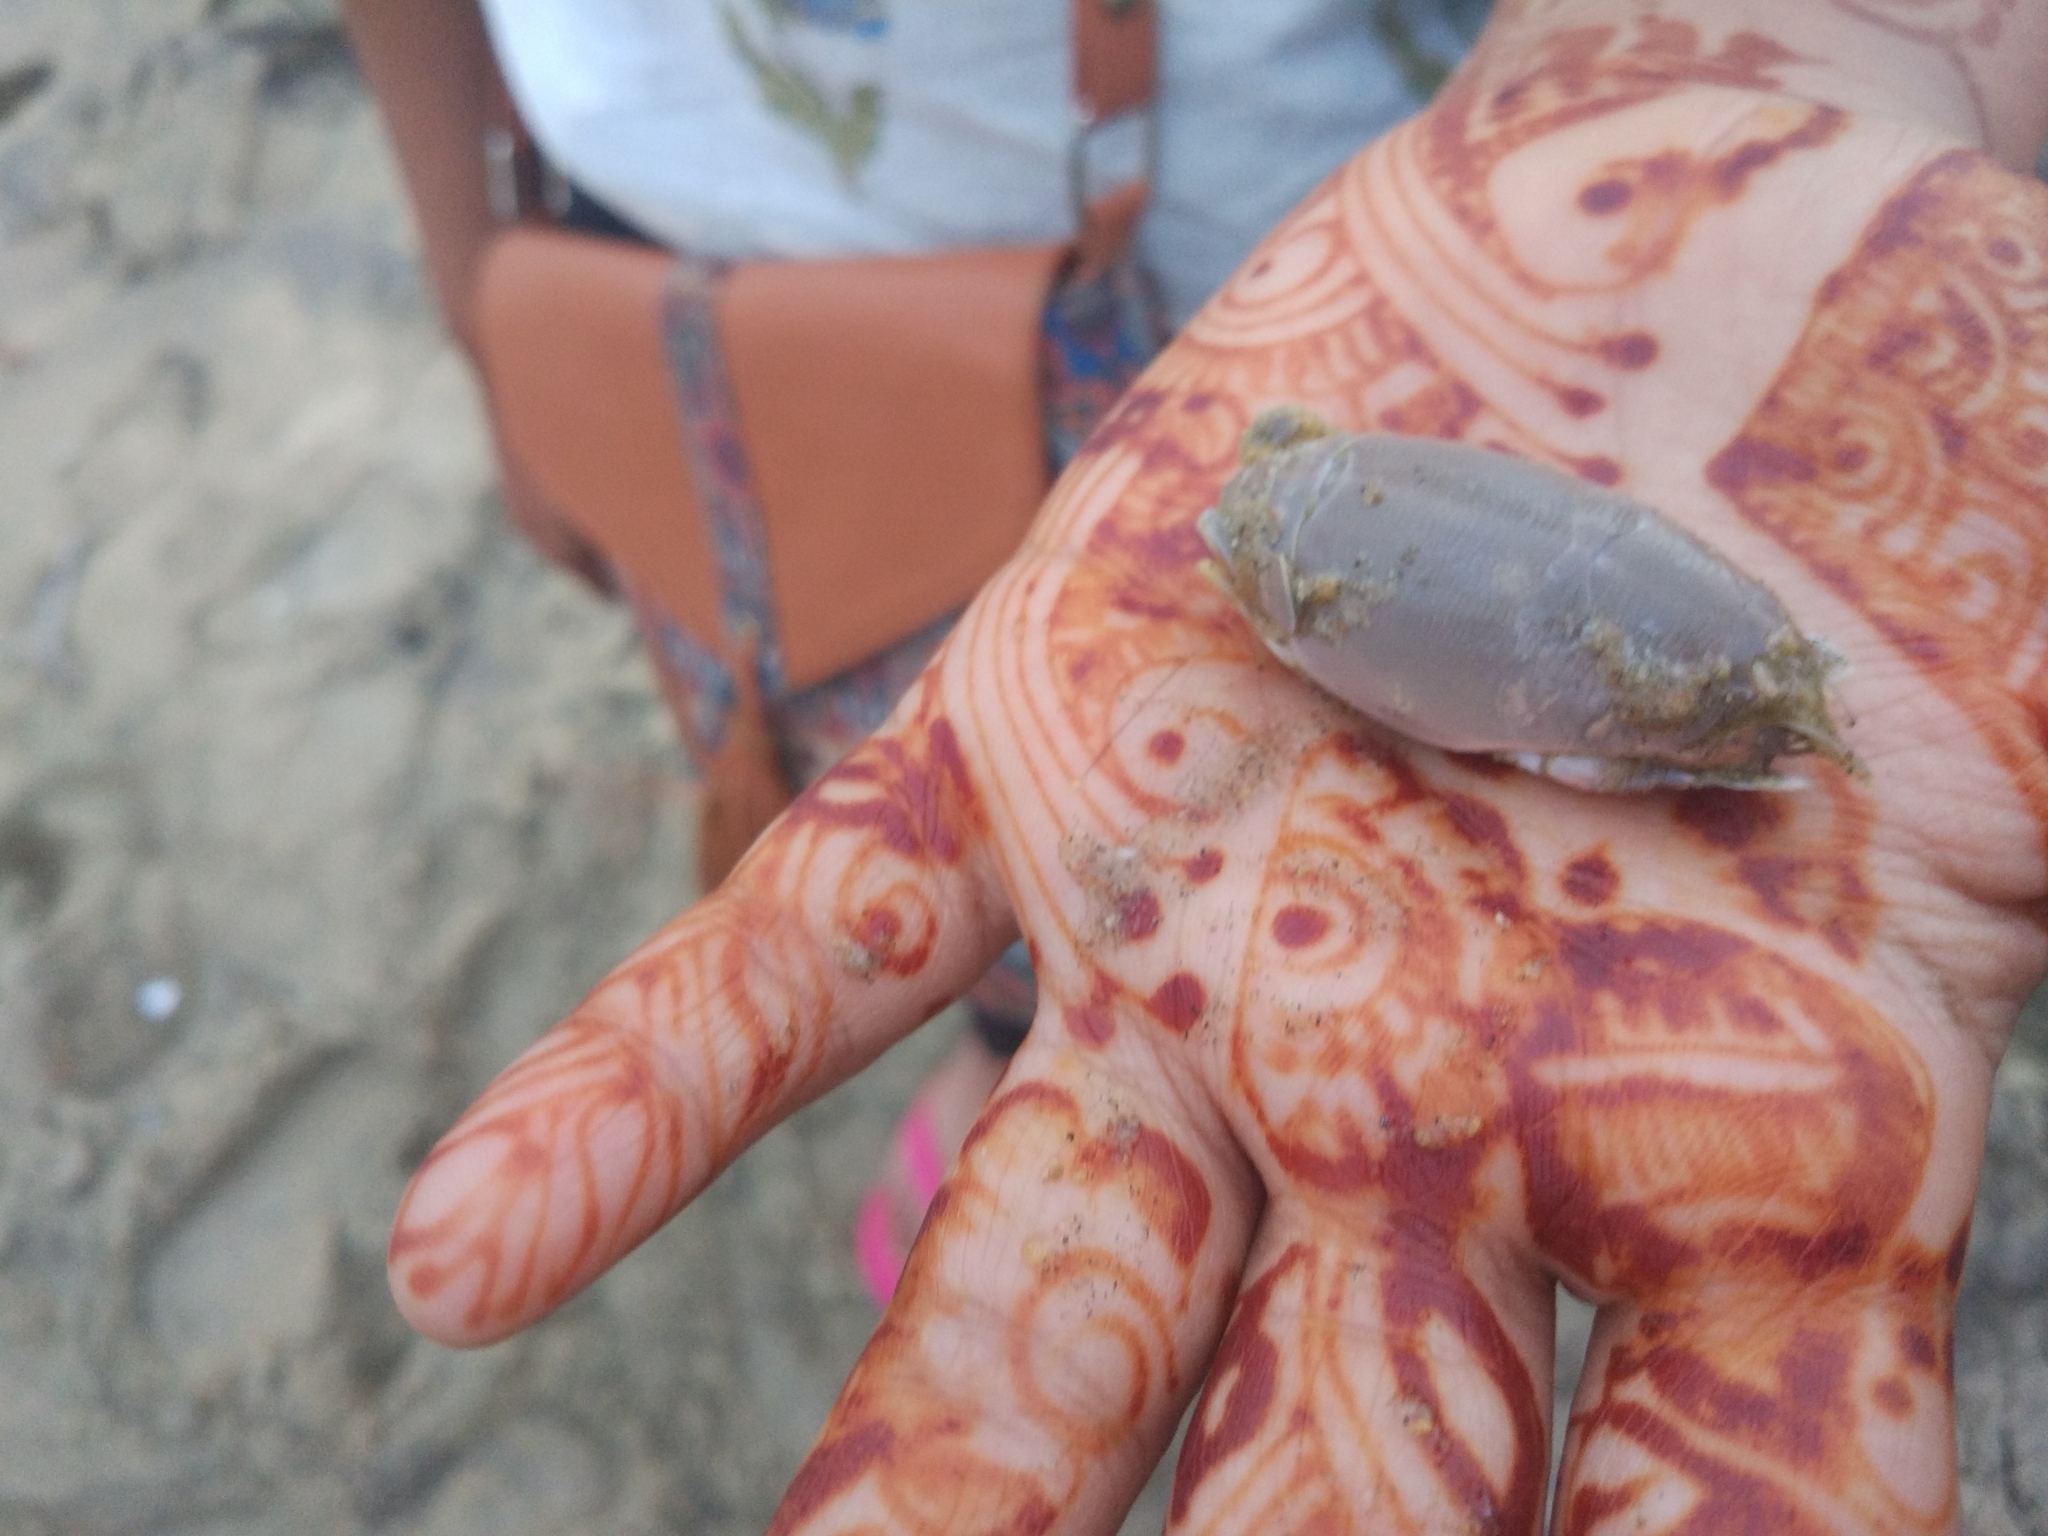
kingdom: Animalia
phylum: Arthropoda
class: Malacostraca
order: Decapoda
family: Hippidae
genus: Emerita
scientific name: Emerita emeritus
